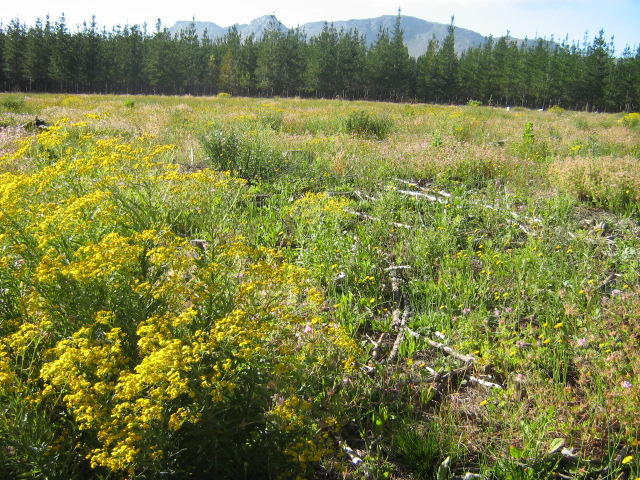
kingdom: Plantae
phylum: Tracheophyta
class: Magnoliopsida
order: Asterales
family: Asteraceae
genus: Senecio
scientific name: Senecio pterophorus
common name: Shoddy ragwort
